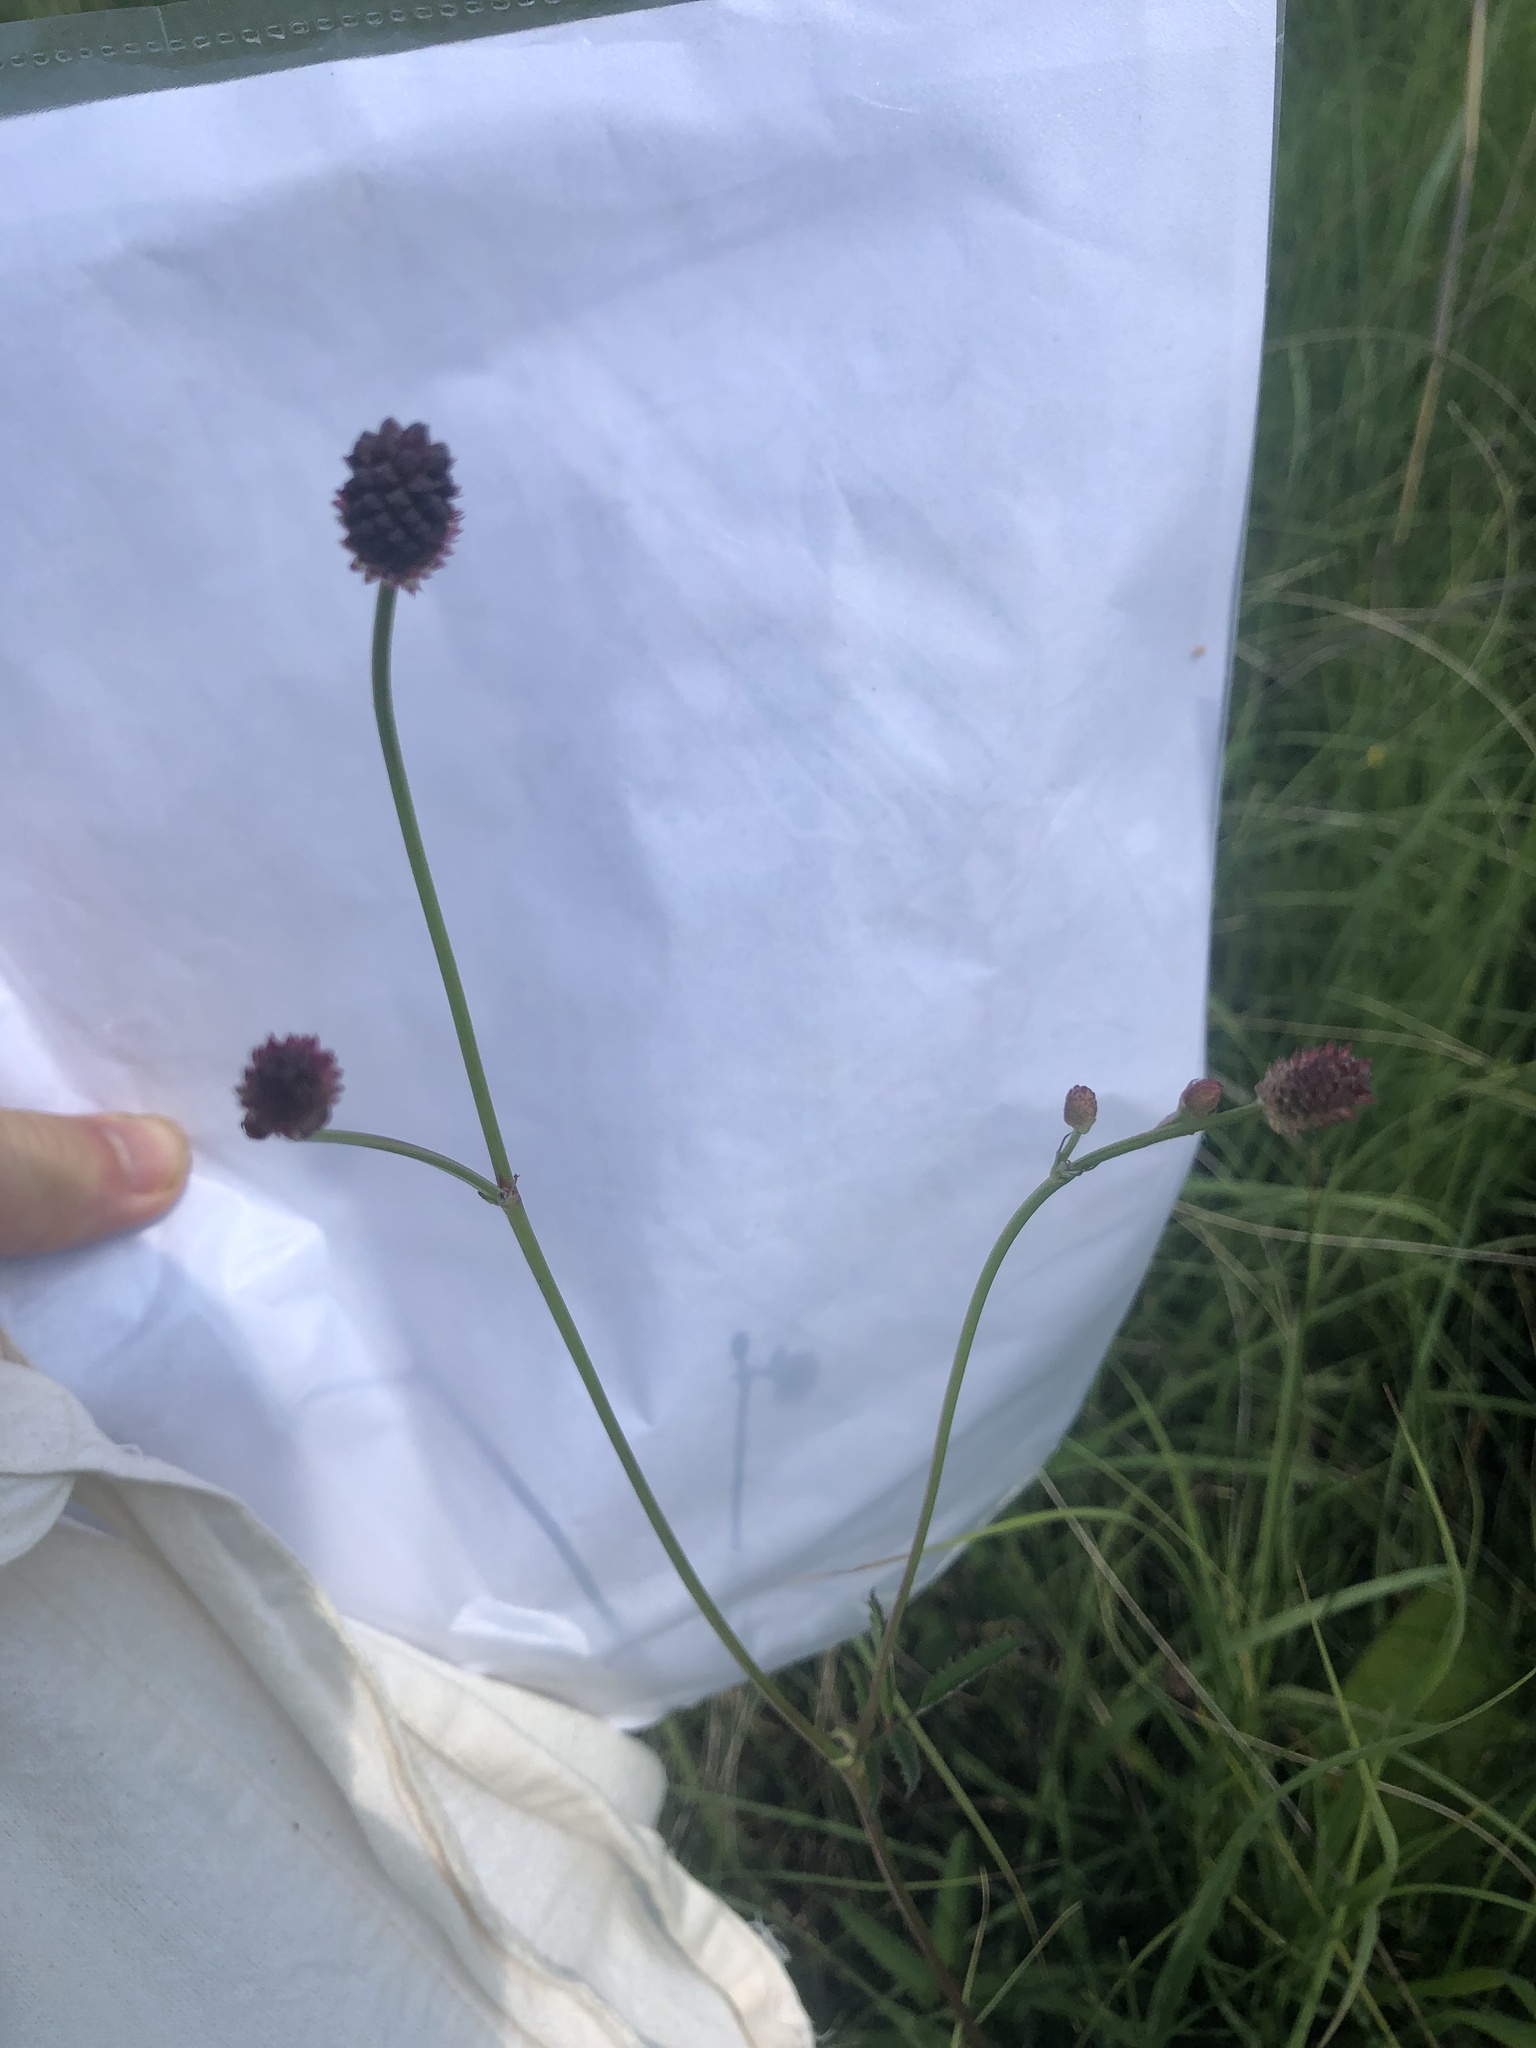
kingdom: Plantae
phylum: Tracheophyta
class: Magnoliopsida
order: Rosales
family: Rosaceae
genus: Sanguisorba
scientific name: Sanguisorba officinalis
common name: Great burnet
